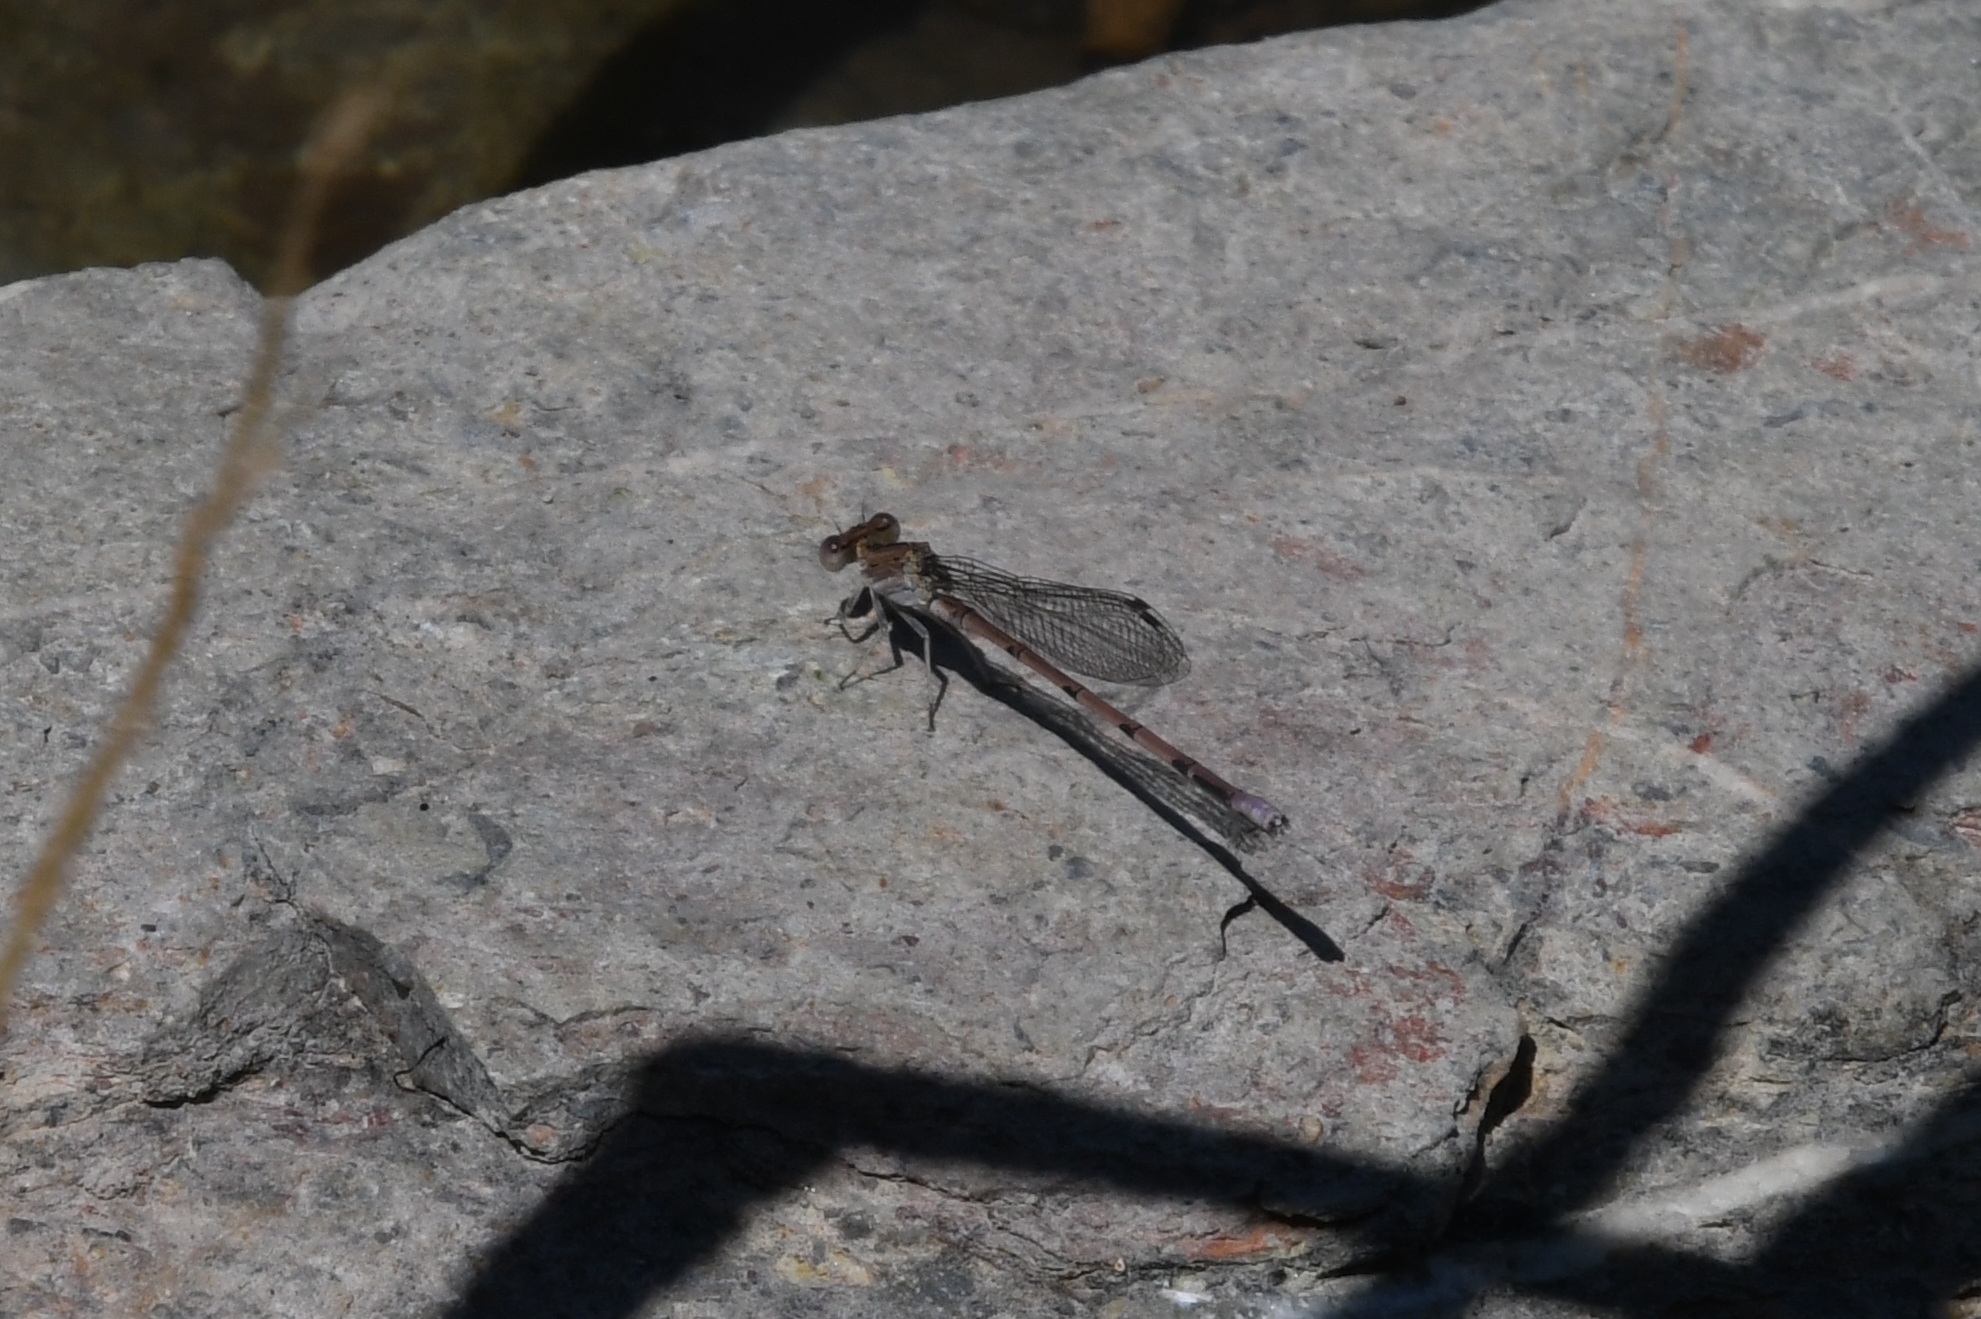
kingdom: Animalia
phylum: Arthropoda
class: Insecta
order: Odonata
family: Coenagrionidae
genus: Argia
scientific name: Argia pallens
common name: Amethyst dancer
